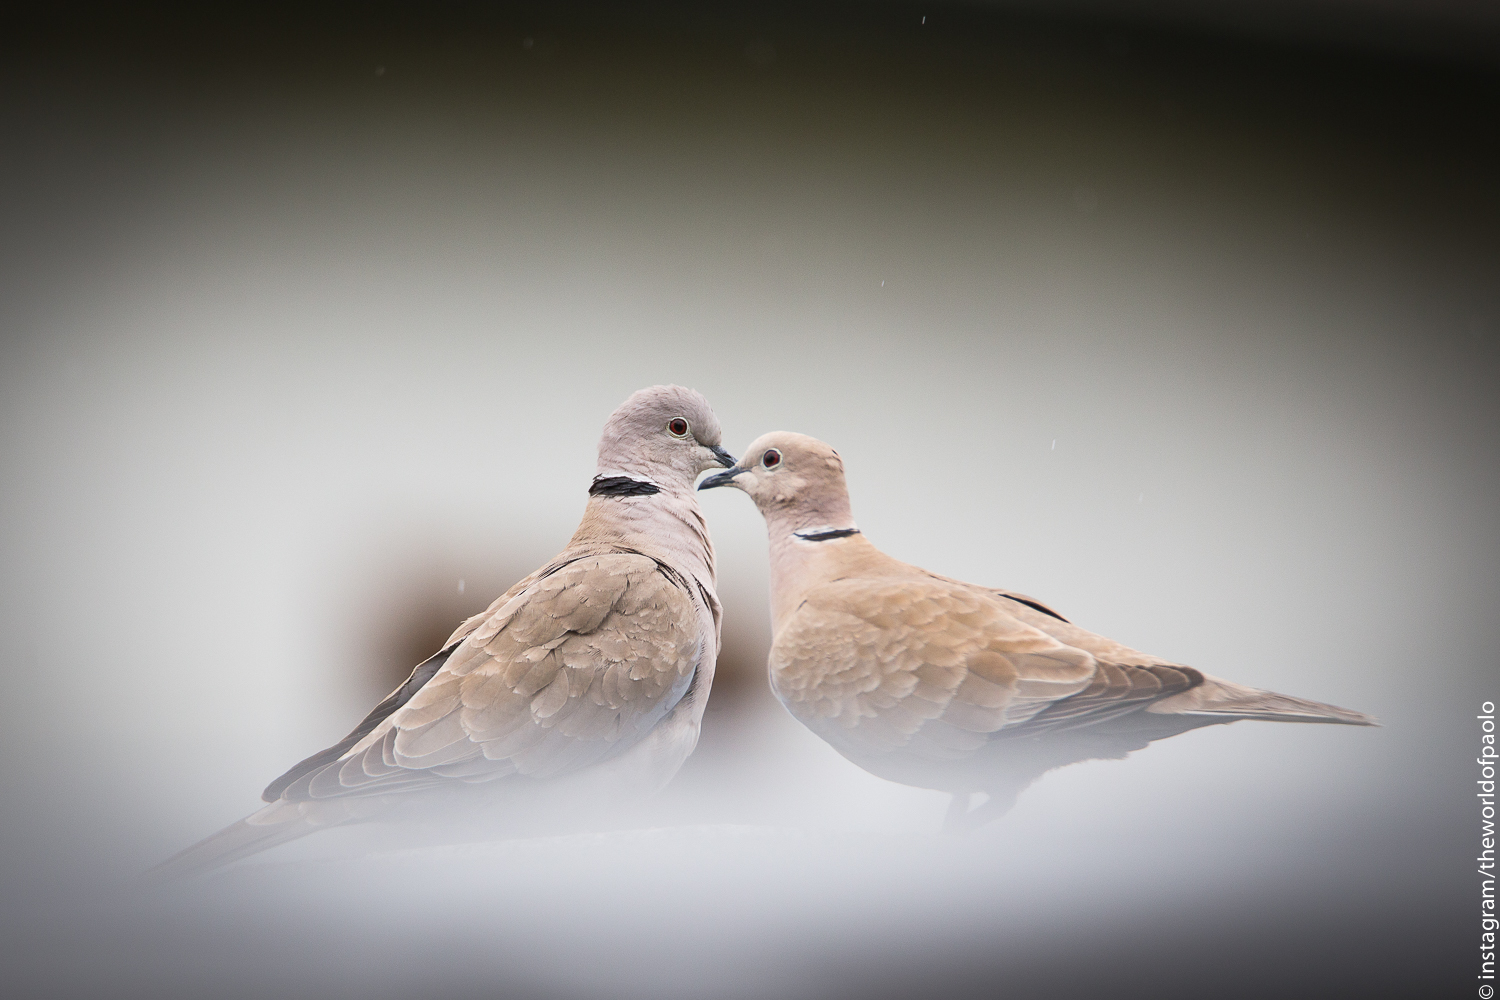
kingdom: Animalia
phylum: Chordata
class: Aves
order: Columbiformes
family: Columbidae
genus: Streptopelia
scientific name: Streptopelia decaocto
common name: Eurasian collared dove
